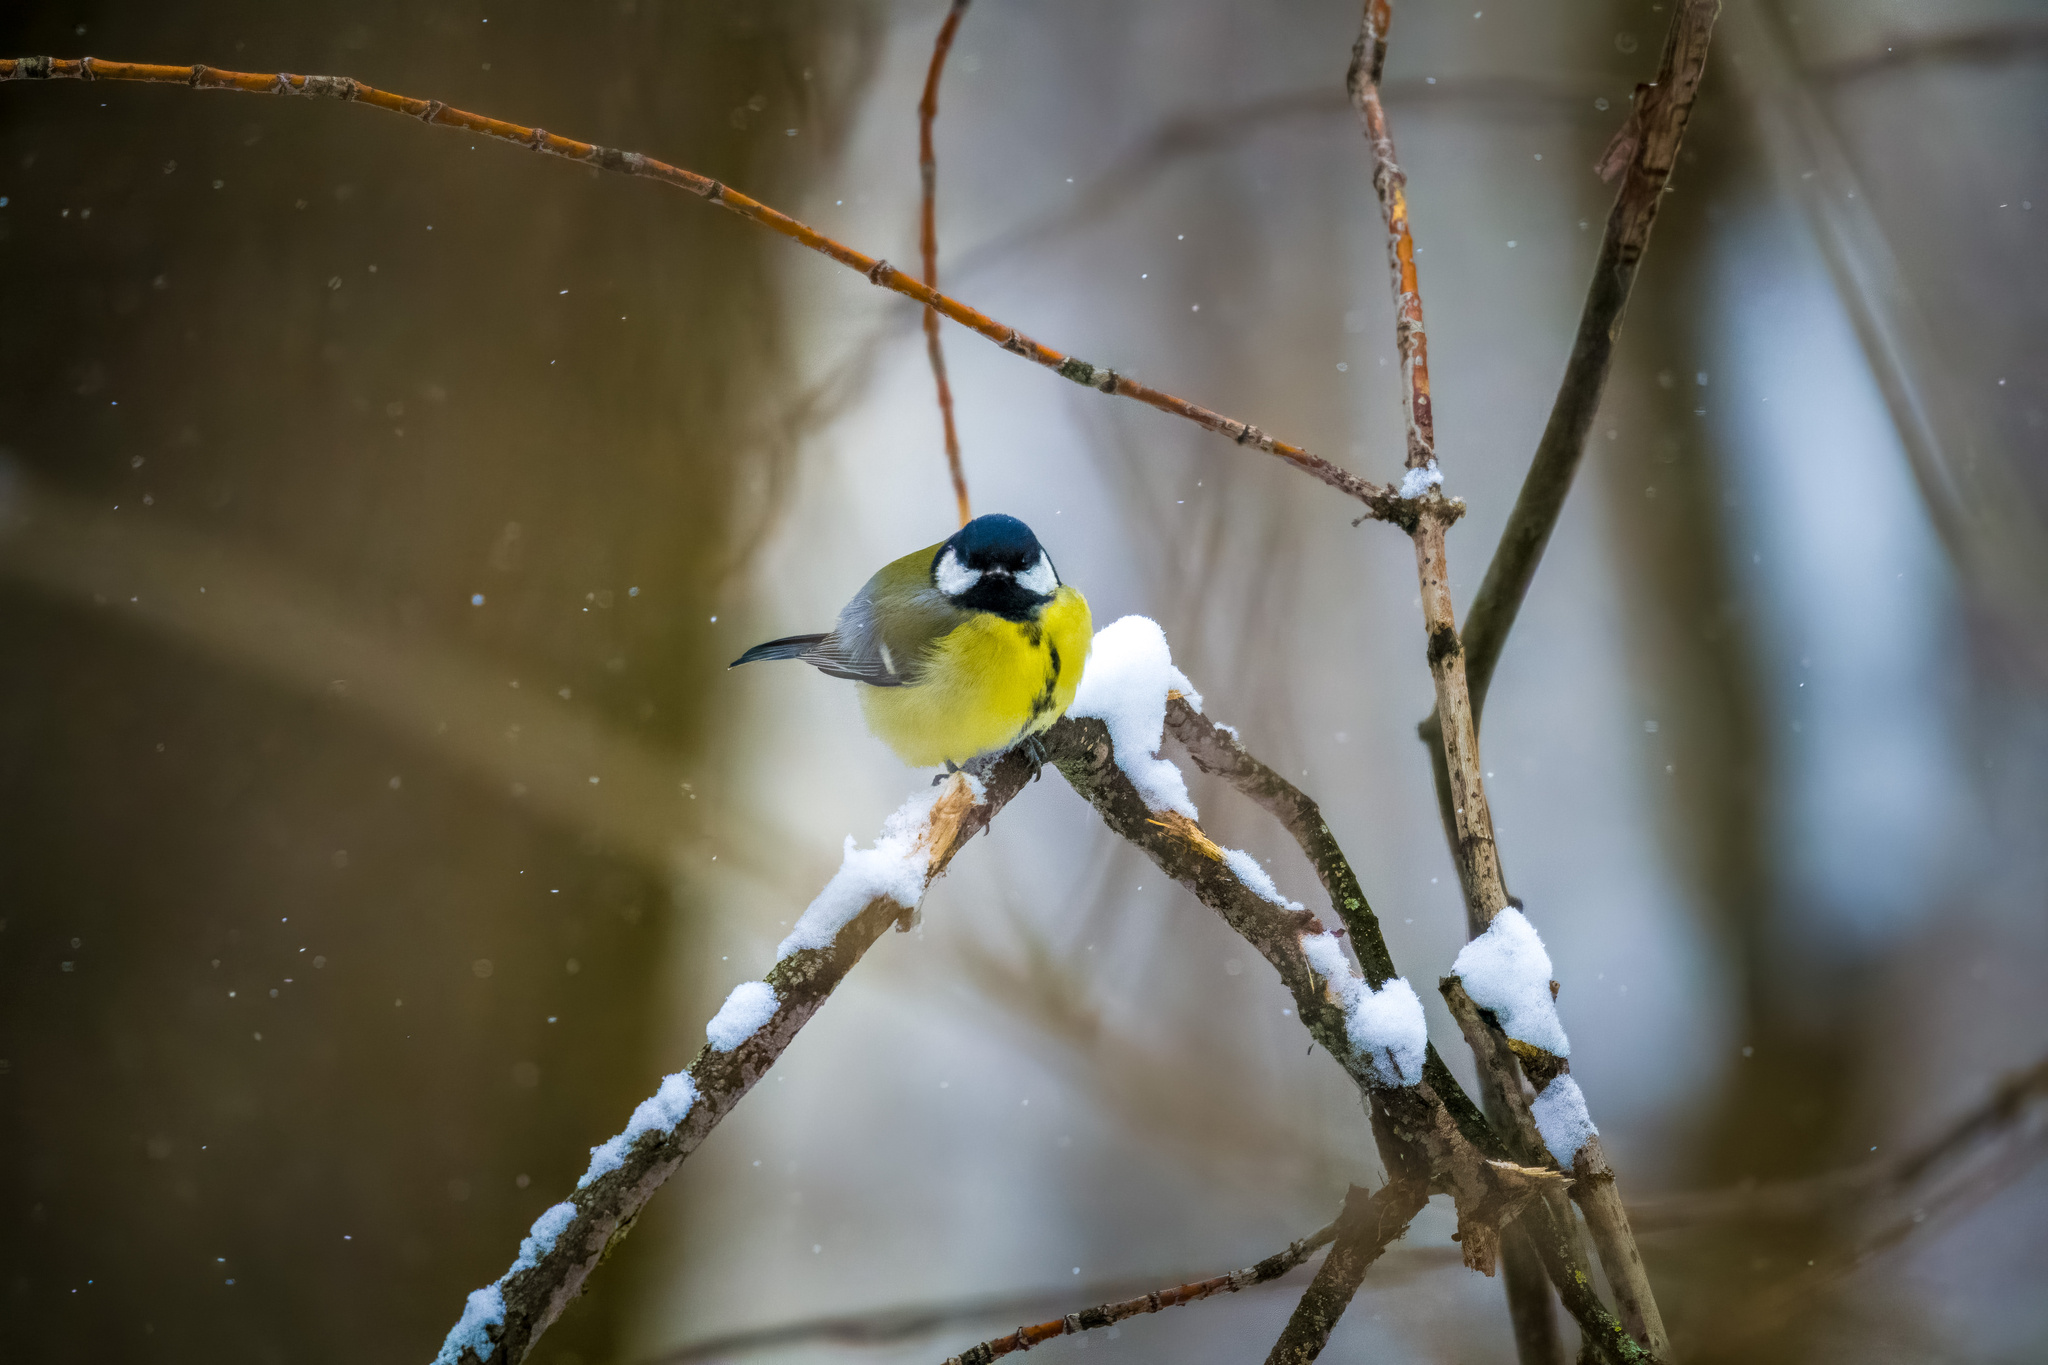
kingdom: Animalia
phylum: Chordata
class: Aves
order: Passeriformes
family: Paridae
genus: Parus
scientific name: Parus major
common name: Great tit
